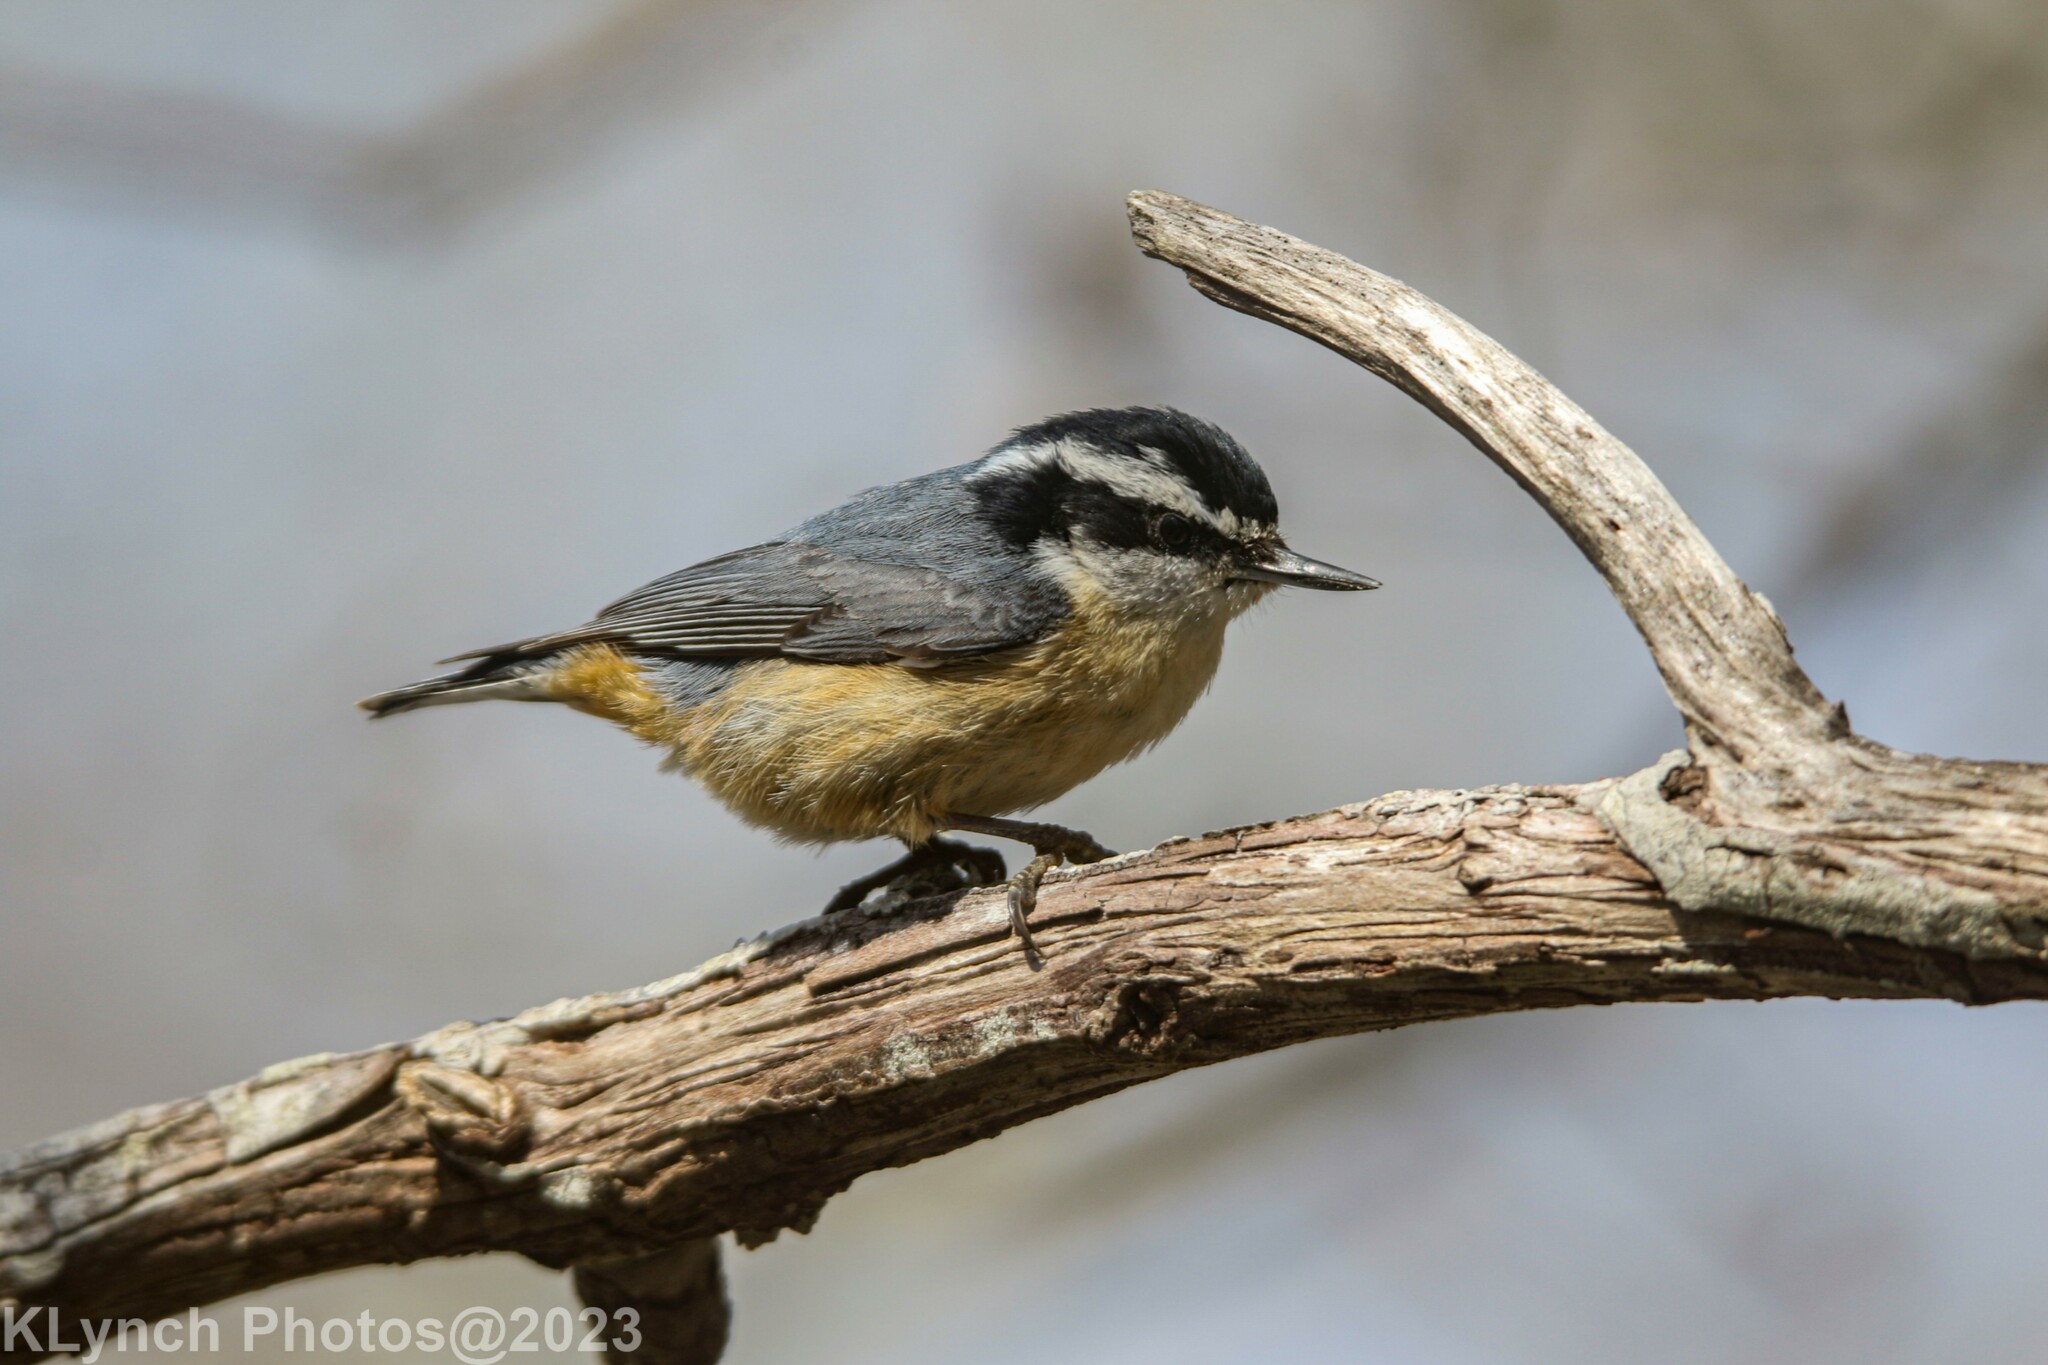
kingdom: Animalia
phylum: Chordata
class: Aves
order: Passeriformes
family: Sittidae
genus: Sitta
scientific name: Sitta canadensis
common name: Red-breasted nuthatch
